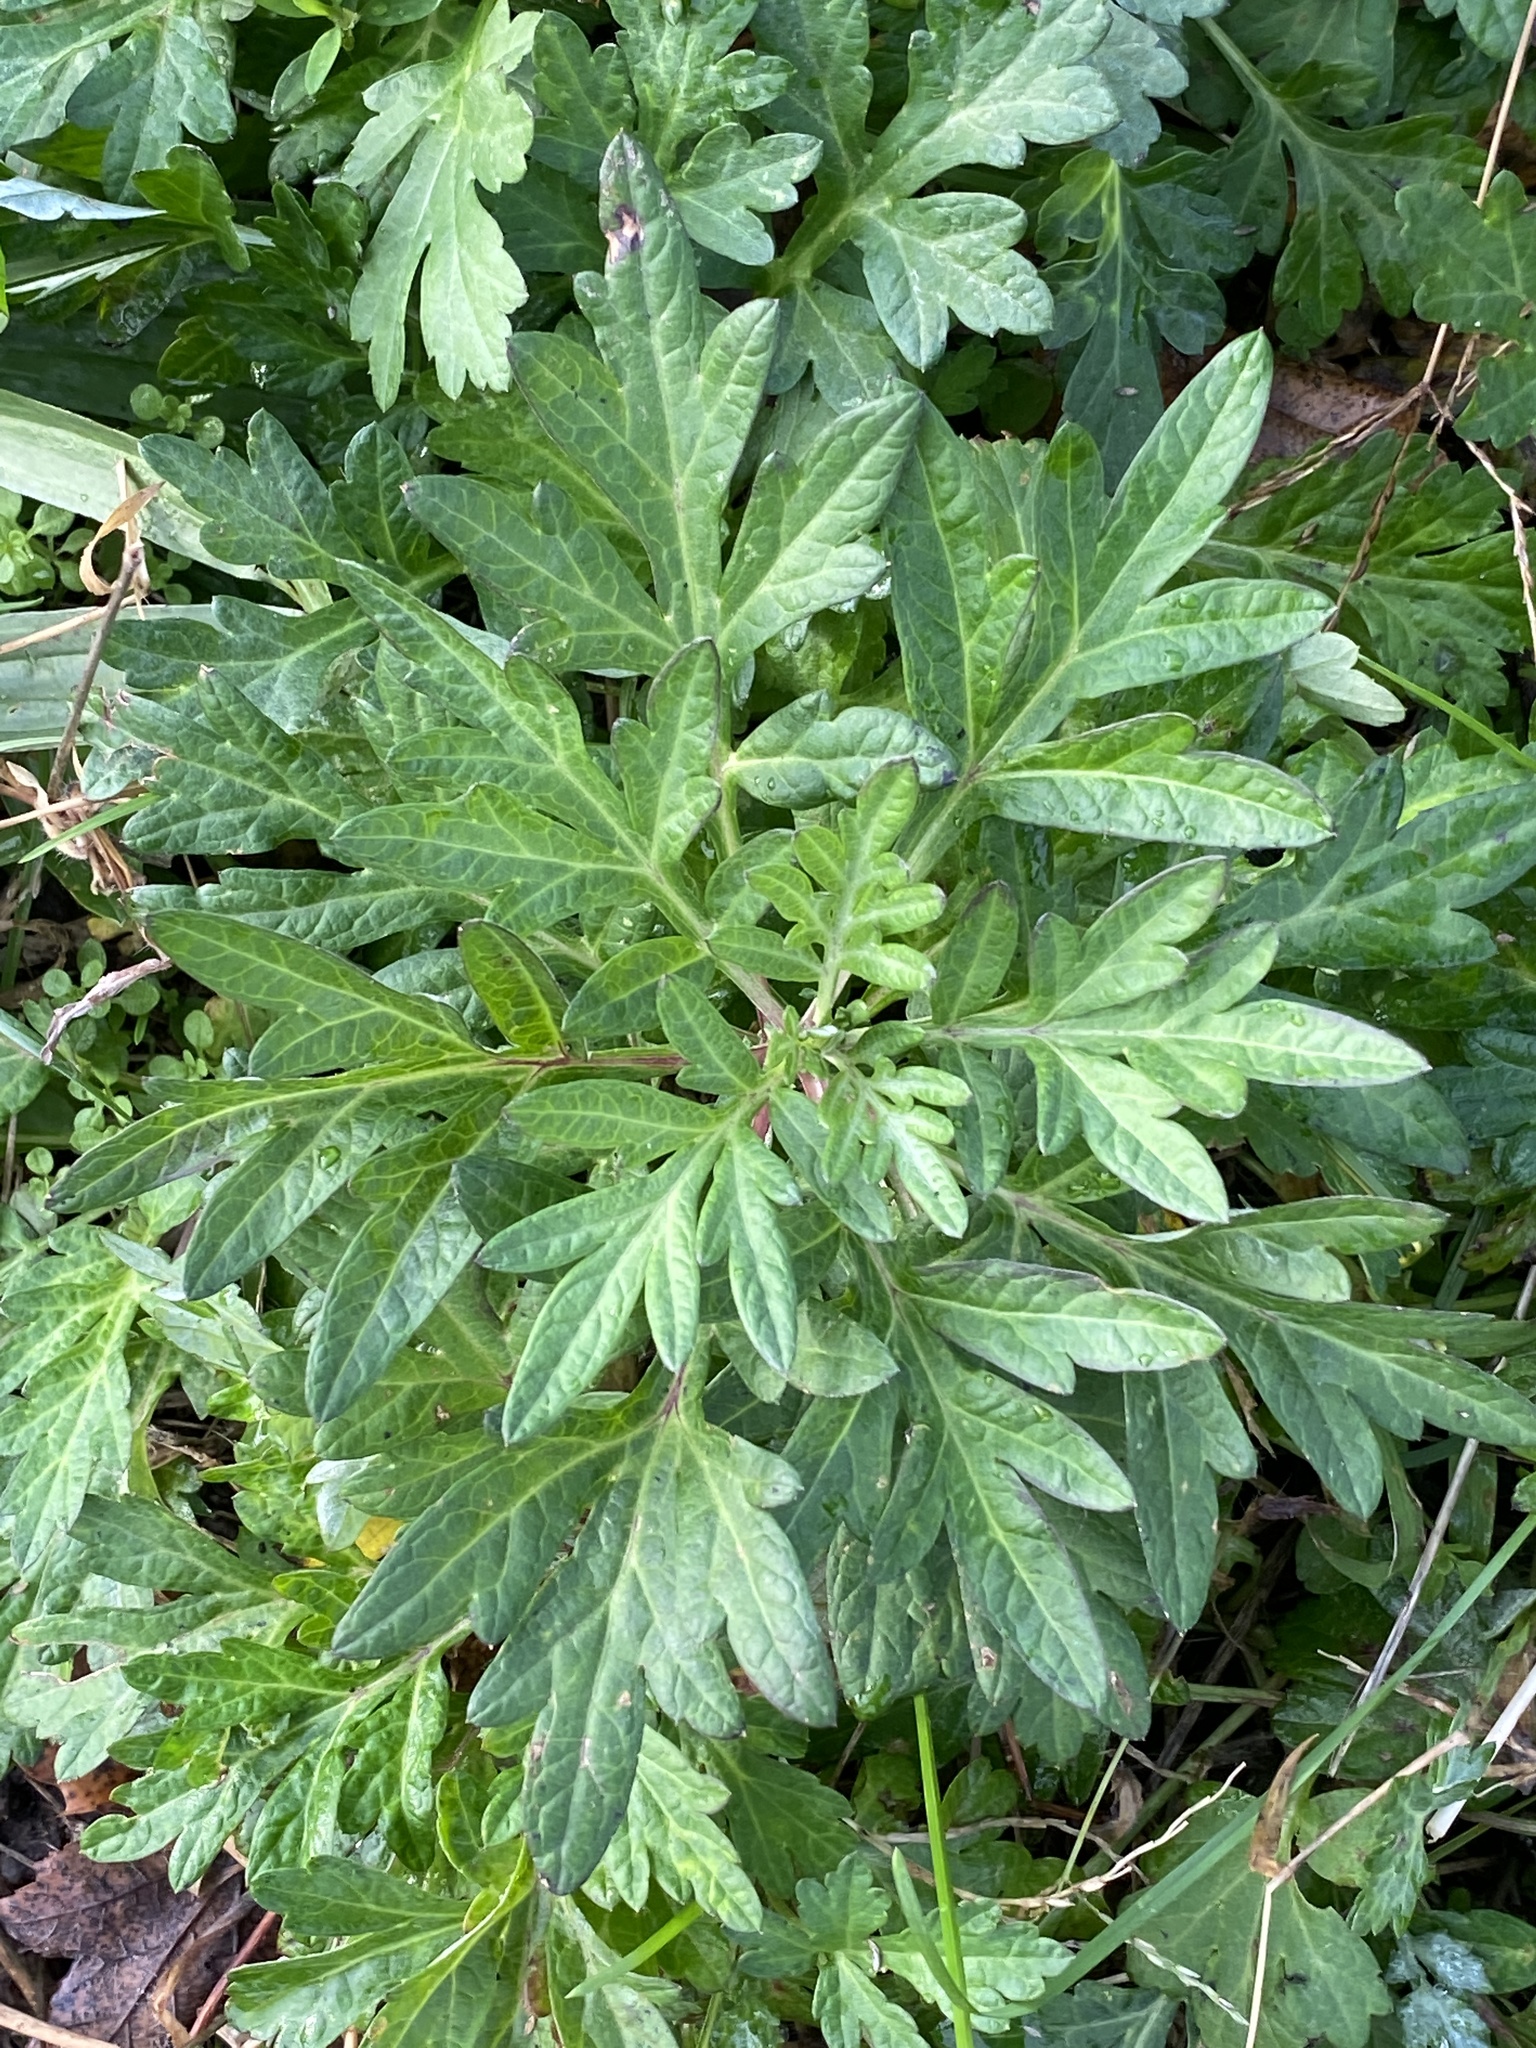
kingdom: Plantae
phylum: Tracheophyta
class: Magnoliopsida
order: Asterales
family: Asteraceae
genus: Artemisia
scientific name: Artemisia vulgaris
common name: Mugwort
